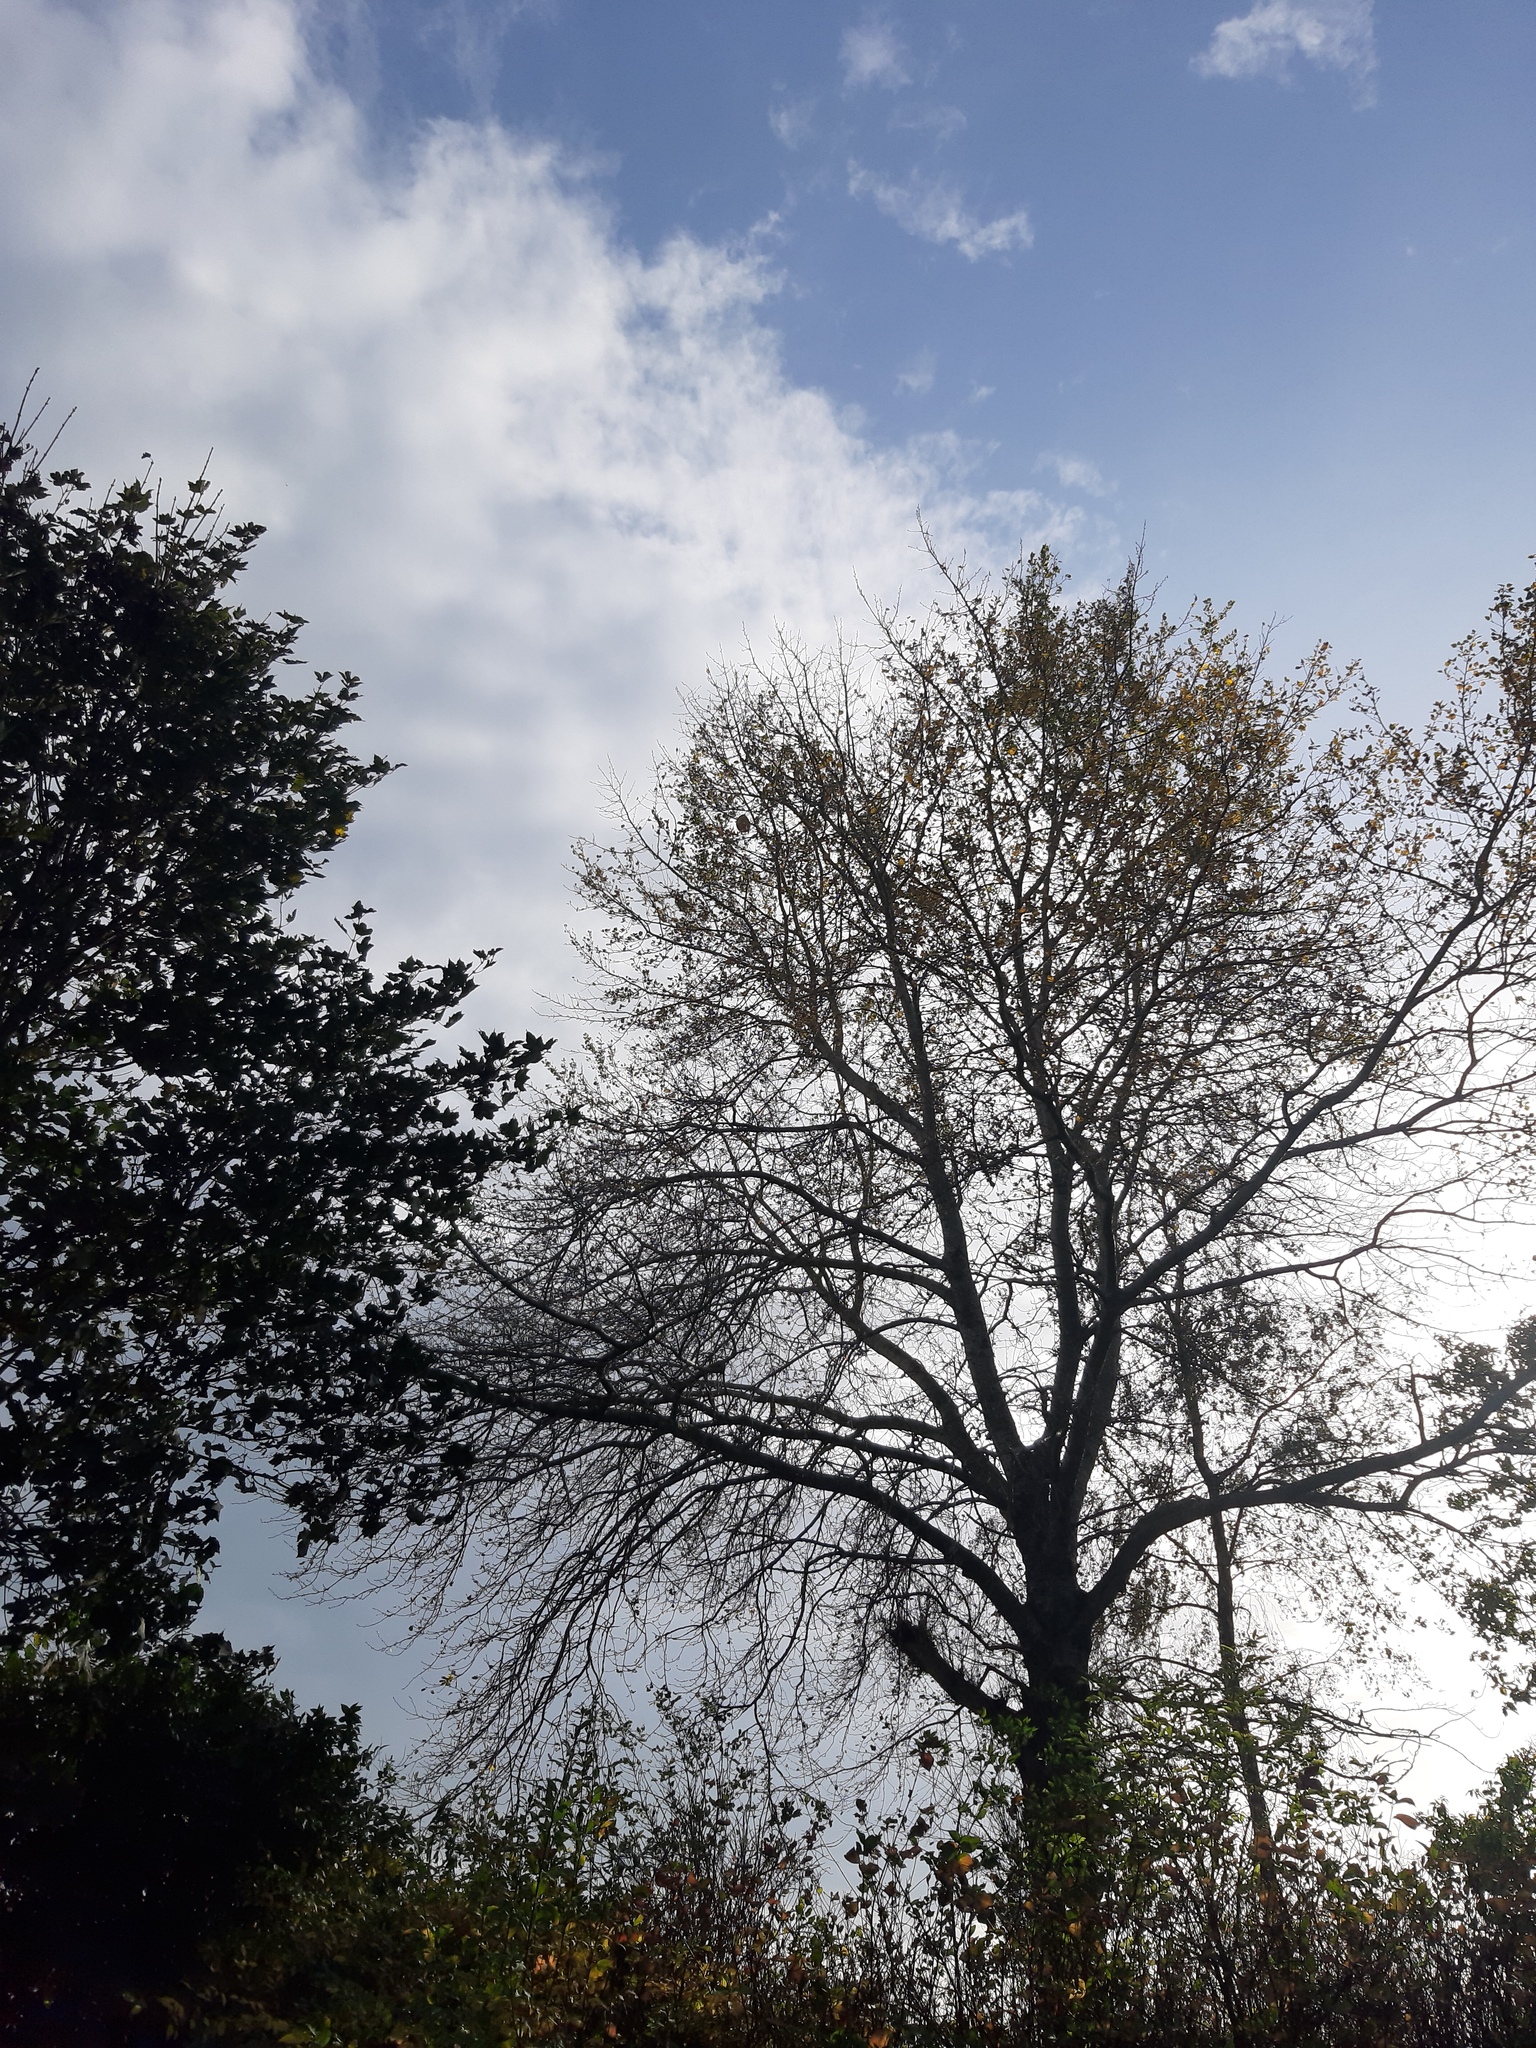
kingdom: Animalia
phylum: Arthropoda
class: Insecta
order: Hymenoptera
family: Vespidae
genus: Vespa
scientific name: Vespa velutina
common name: Asian hornet
